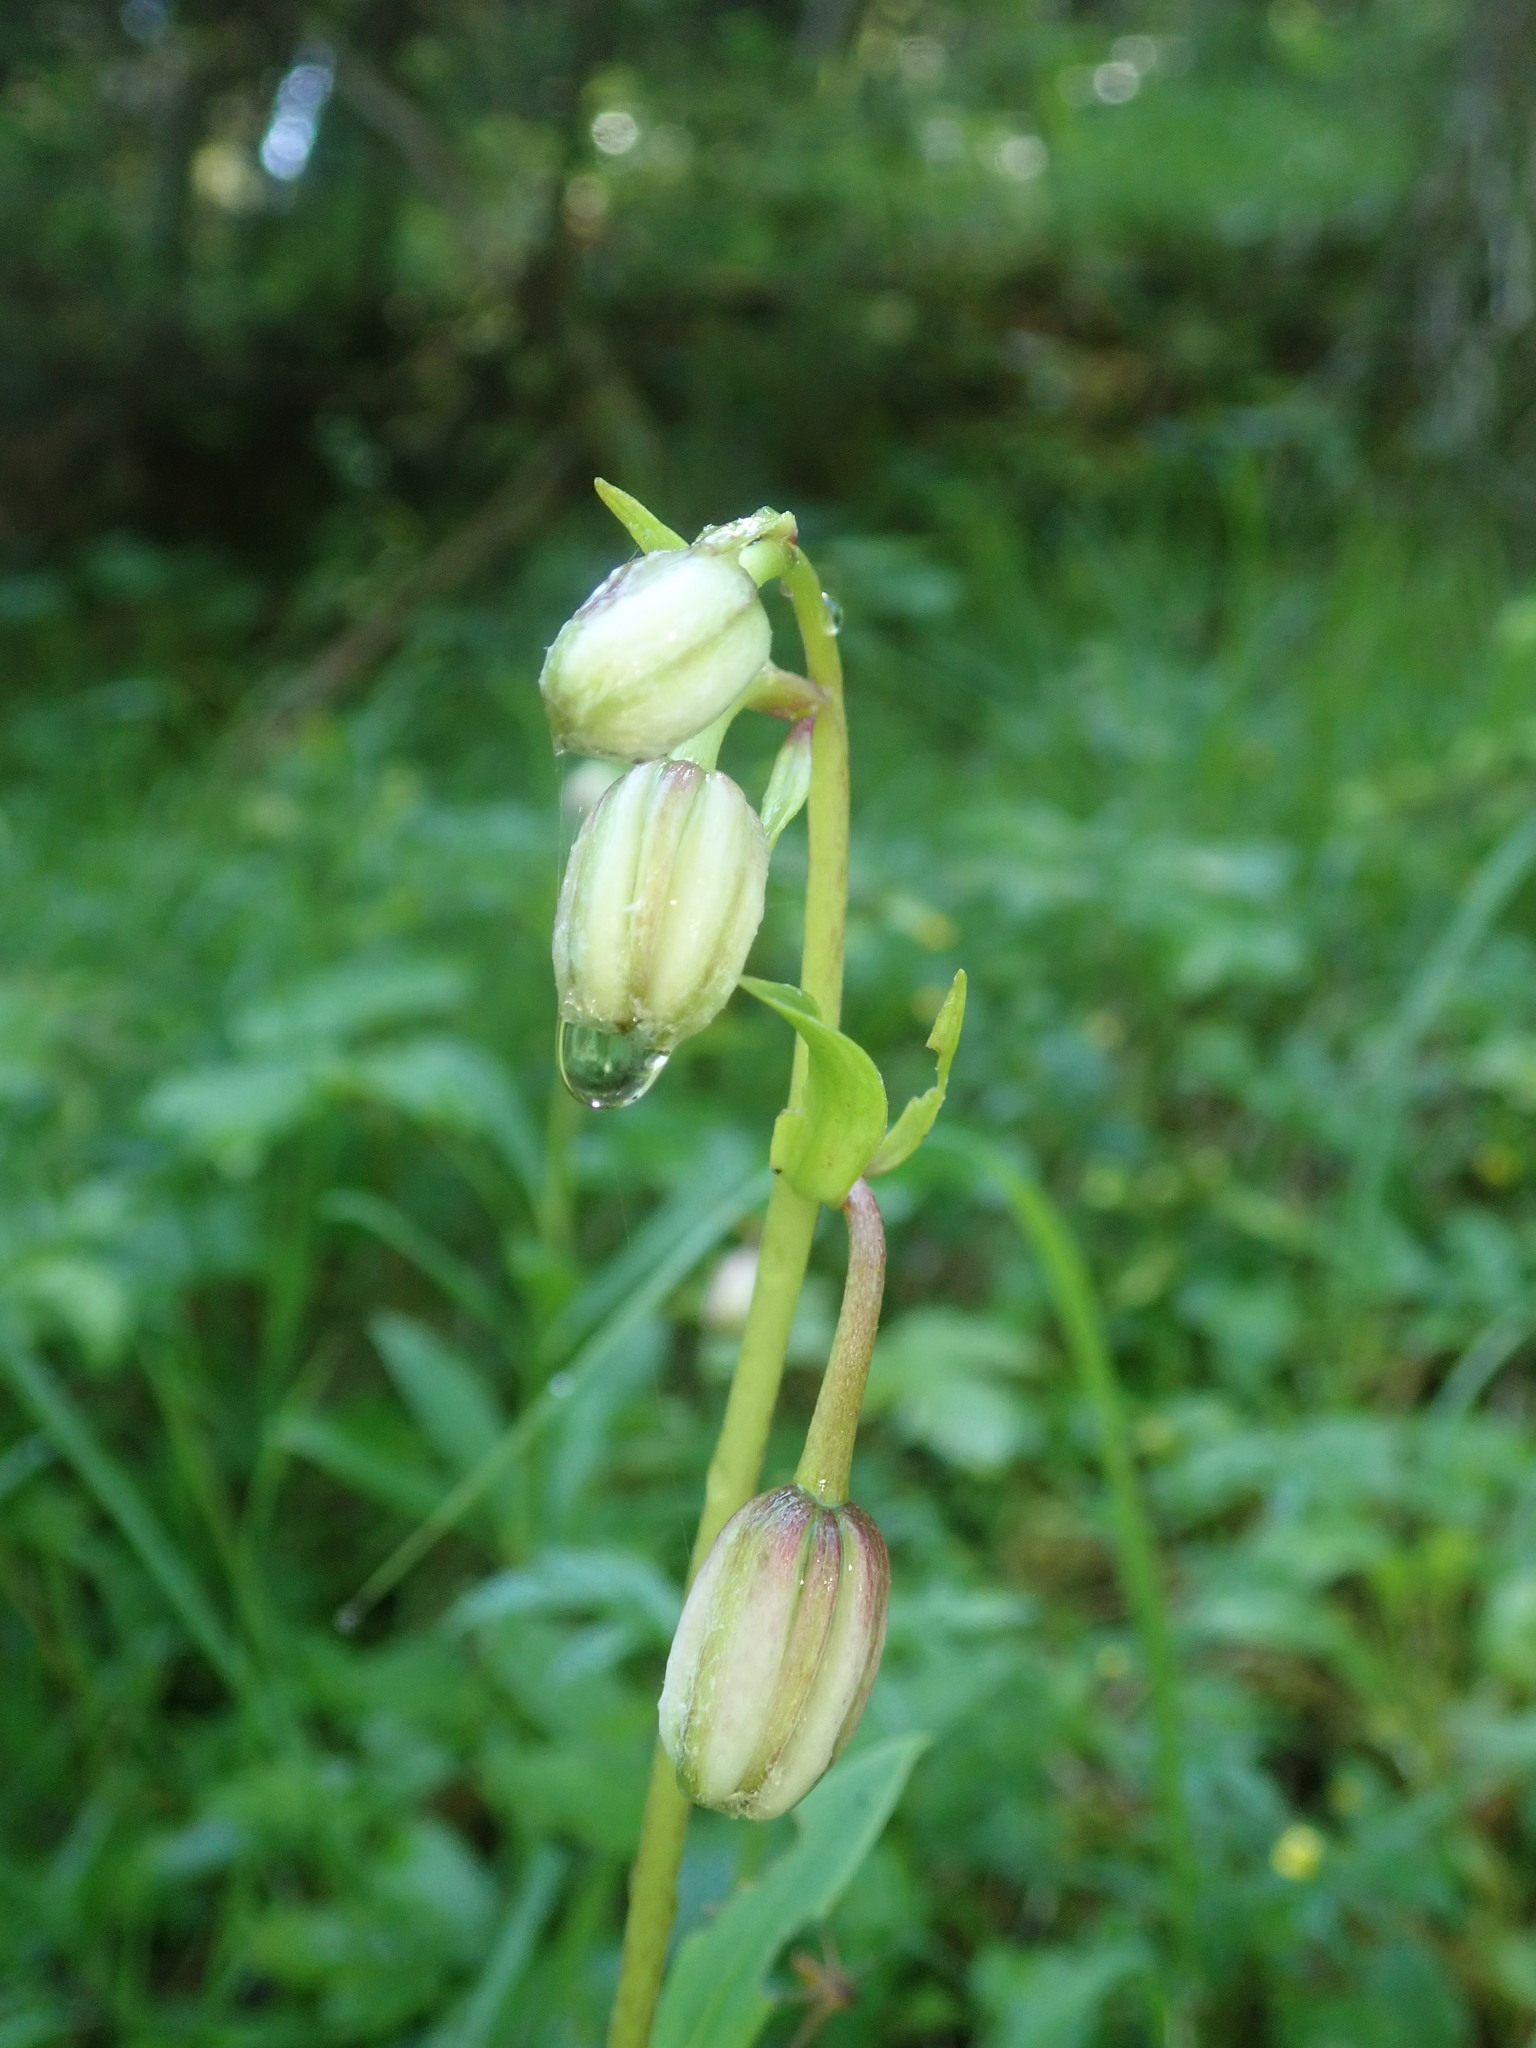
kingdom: Plantae
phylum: Tracheophyta
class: Liliopsida
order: Liliales
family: Liliaceae
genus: Lilium
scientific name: Lilium martagon
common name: Martagon lily
